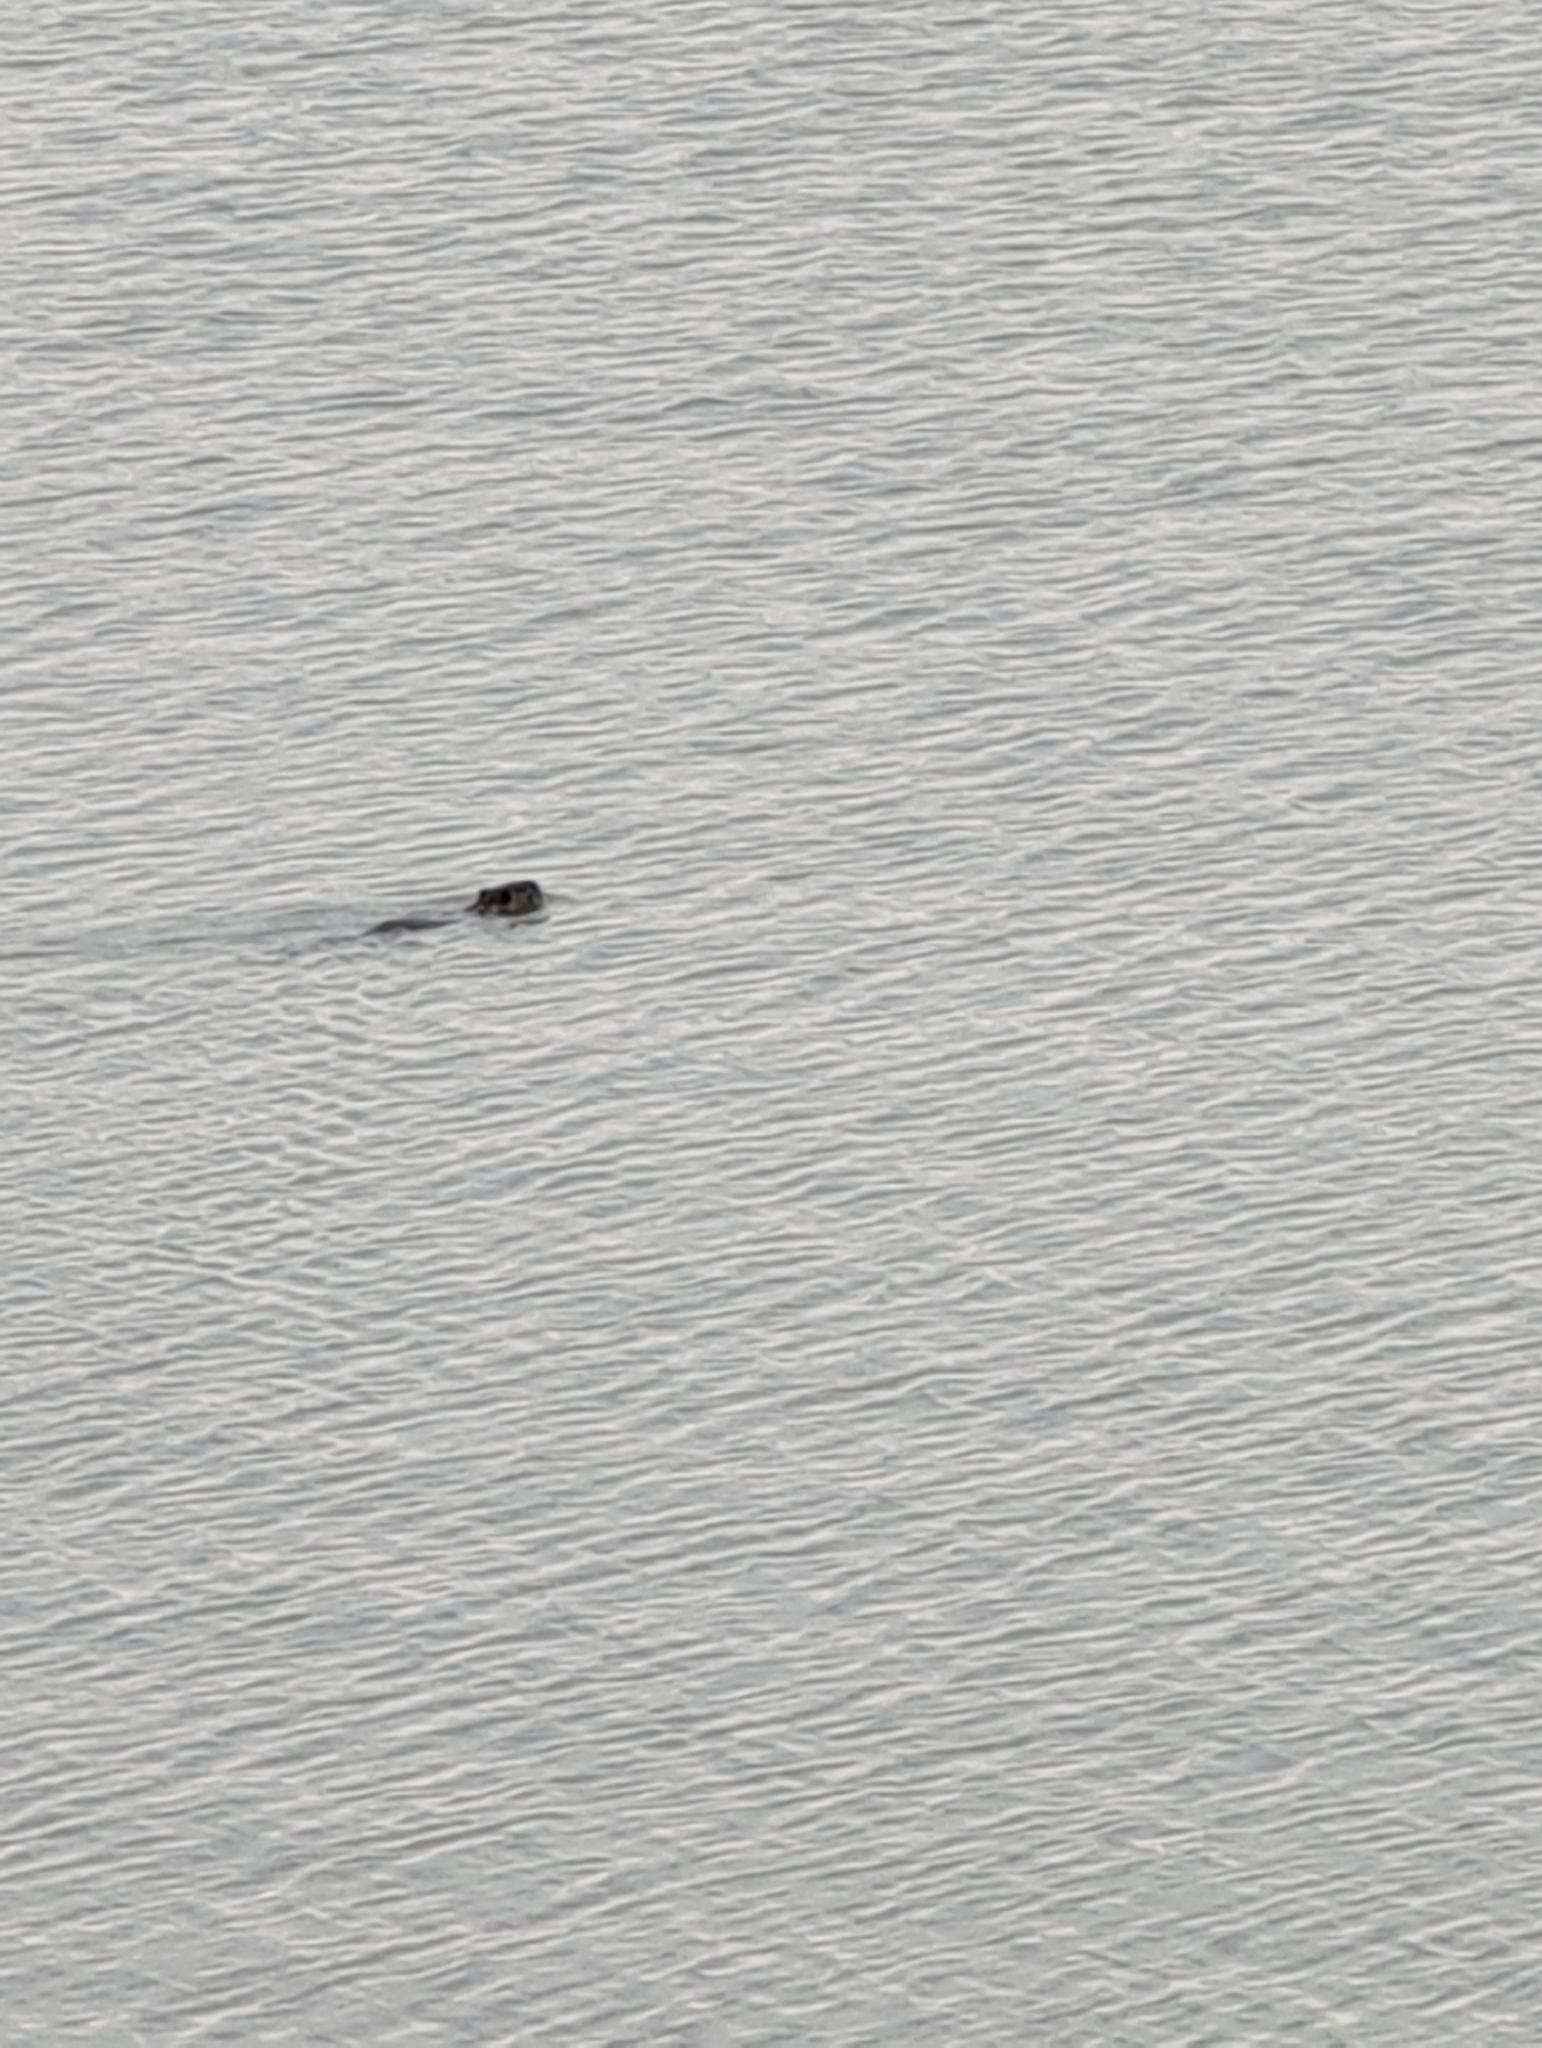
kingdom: Animalia
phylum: Chordata
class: Mammalia
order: Rodentia
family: Myocastoridae
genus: Myocastor
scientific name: Myocastor coypus
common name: Coypu
